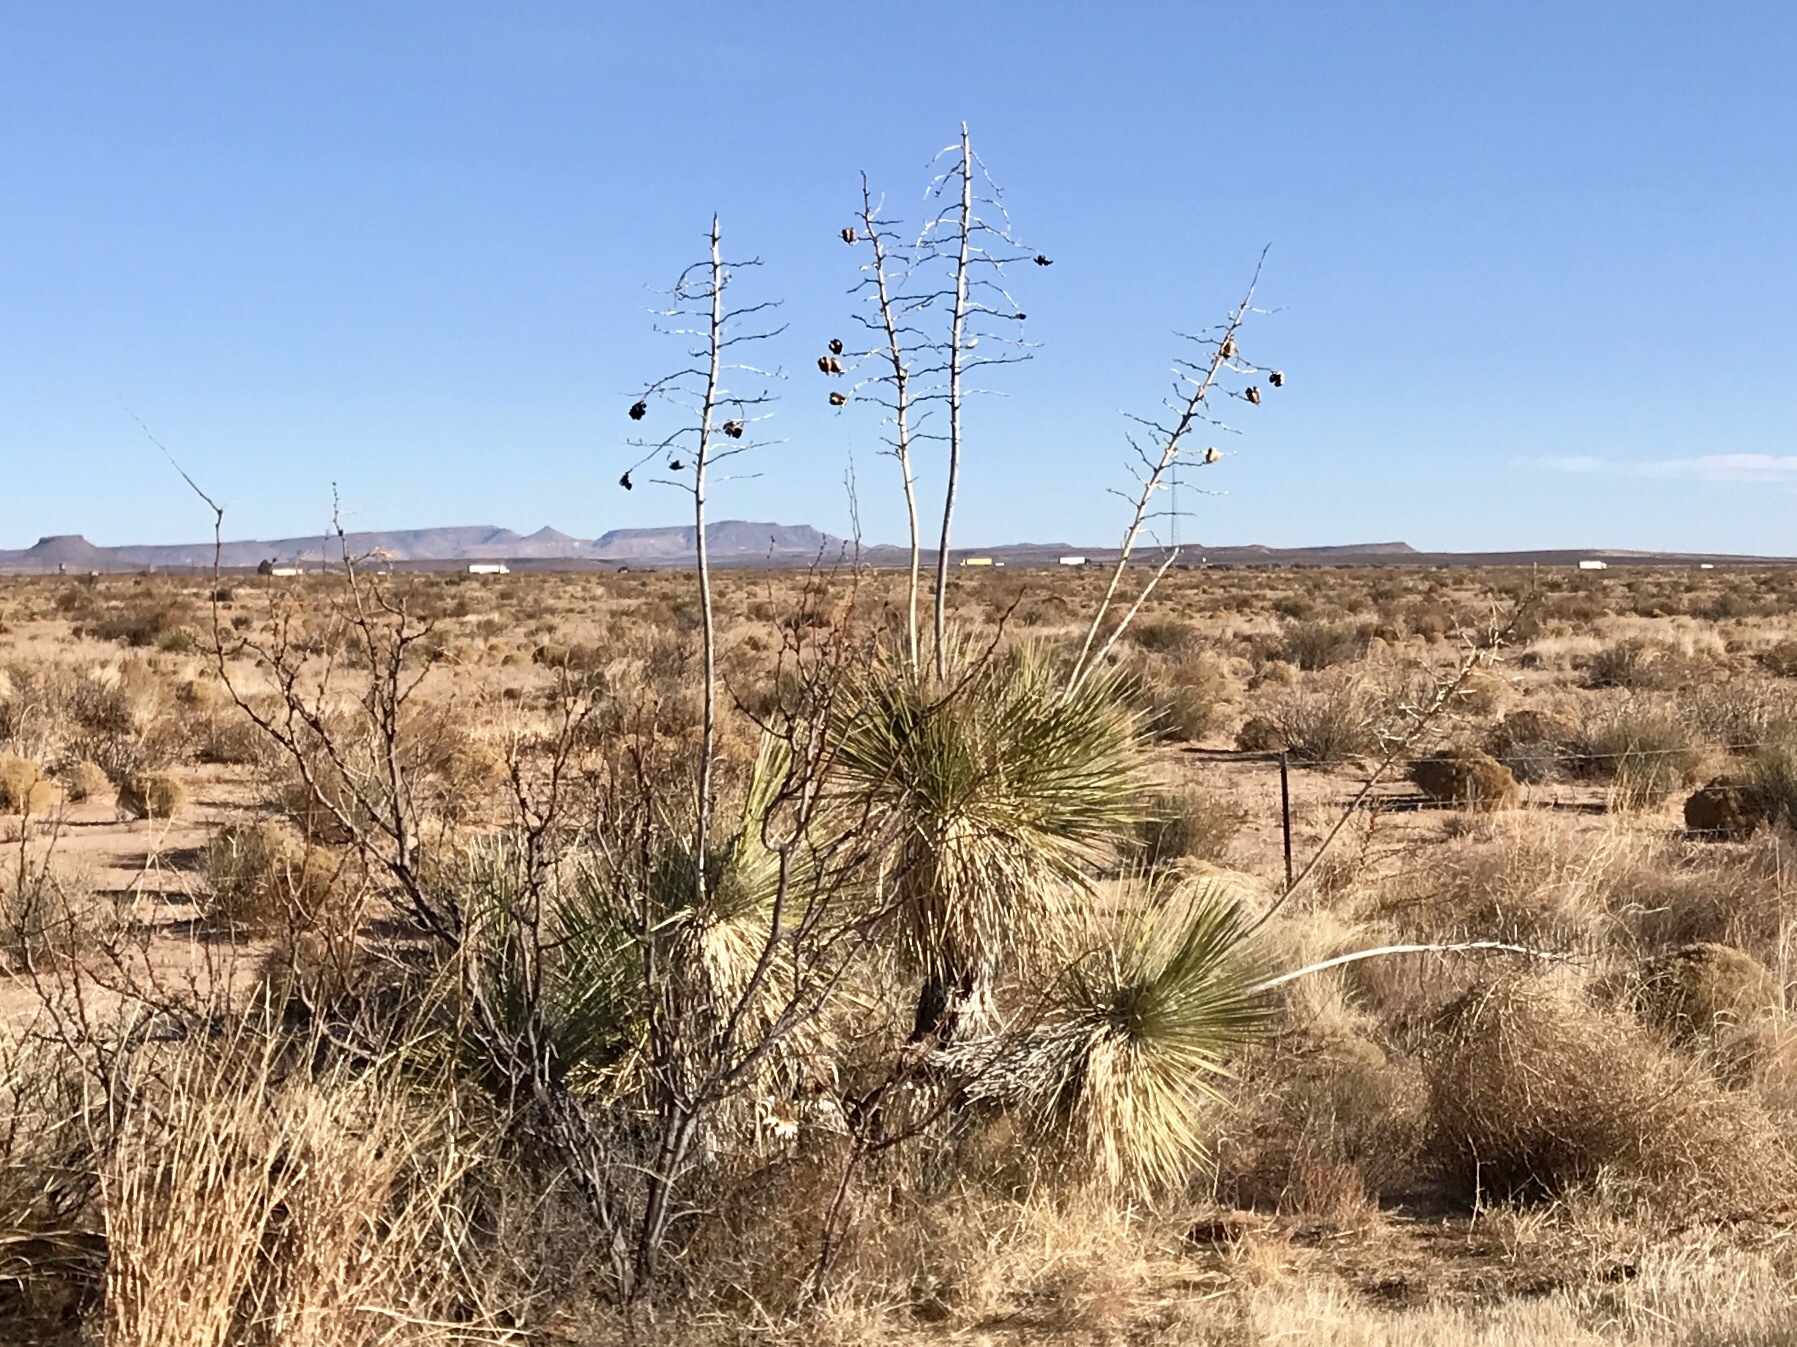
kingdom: Plantae
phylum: Tracheophyta
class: Liliopsida
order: Asparagales
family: Asparagaceae
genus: Yucca
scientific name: Yucca elata
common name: Palmella
